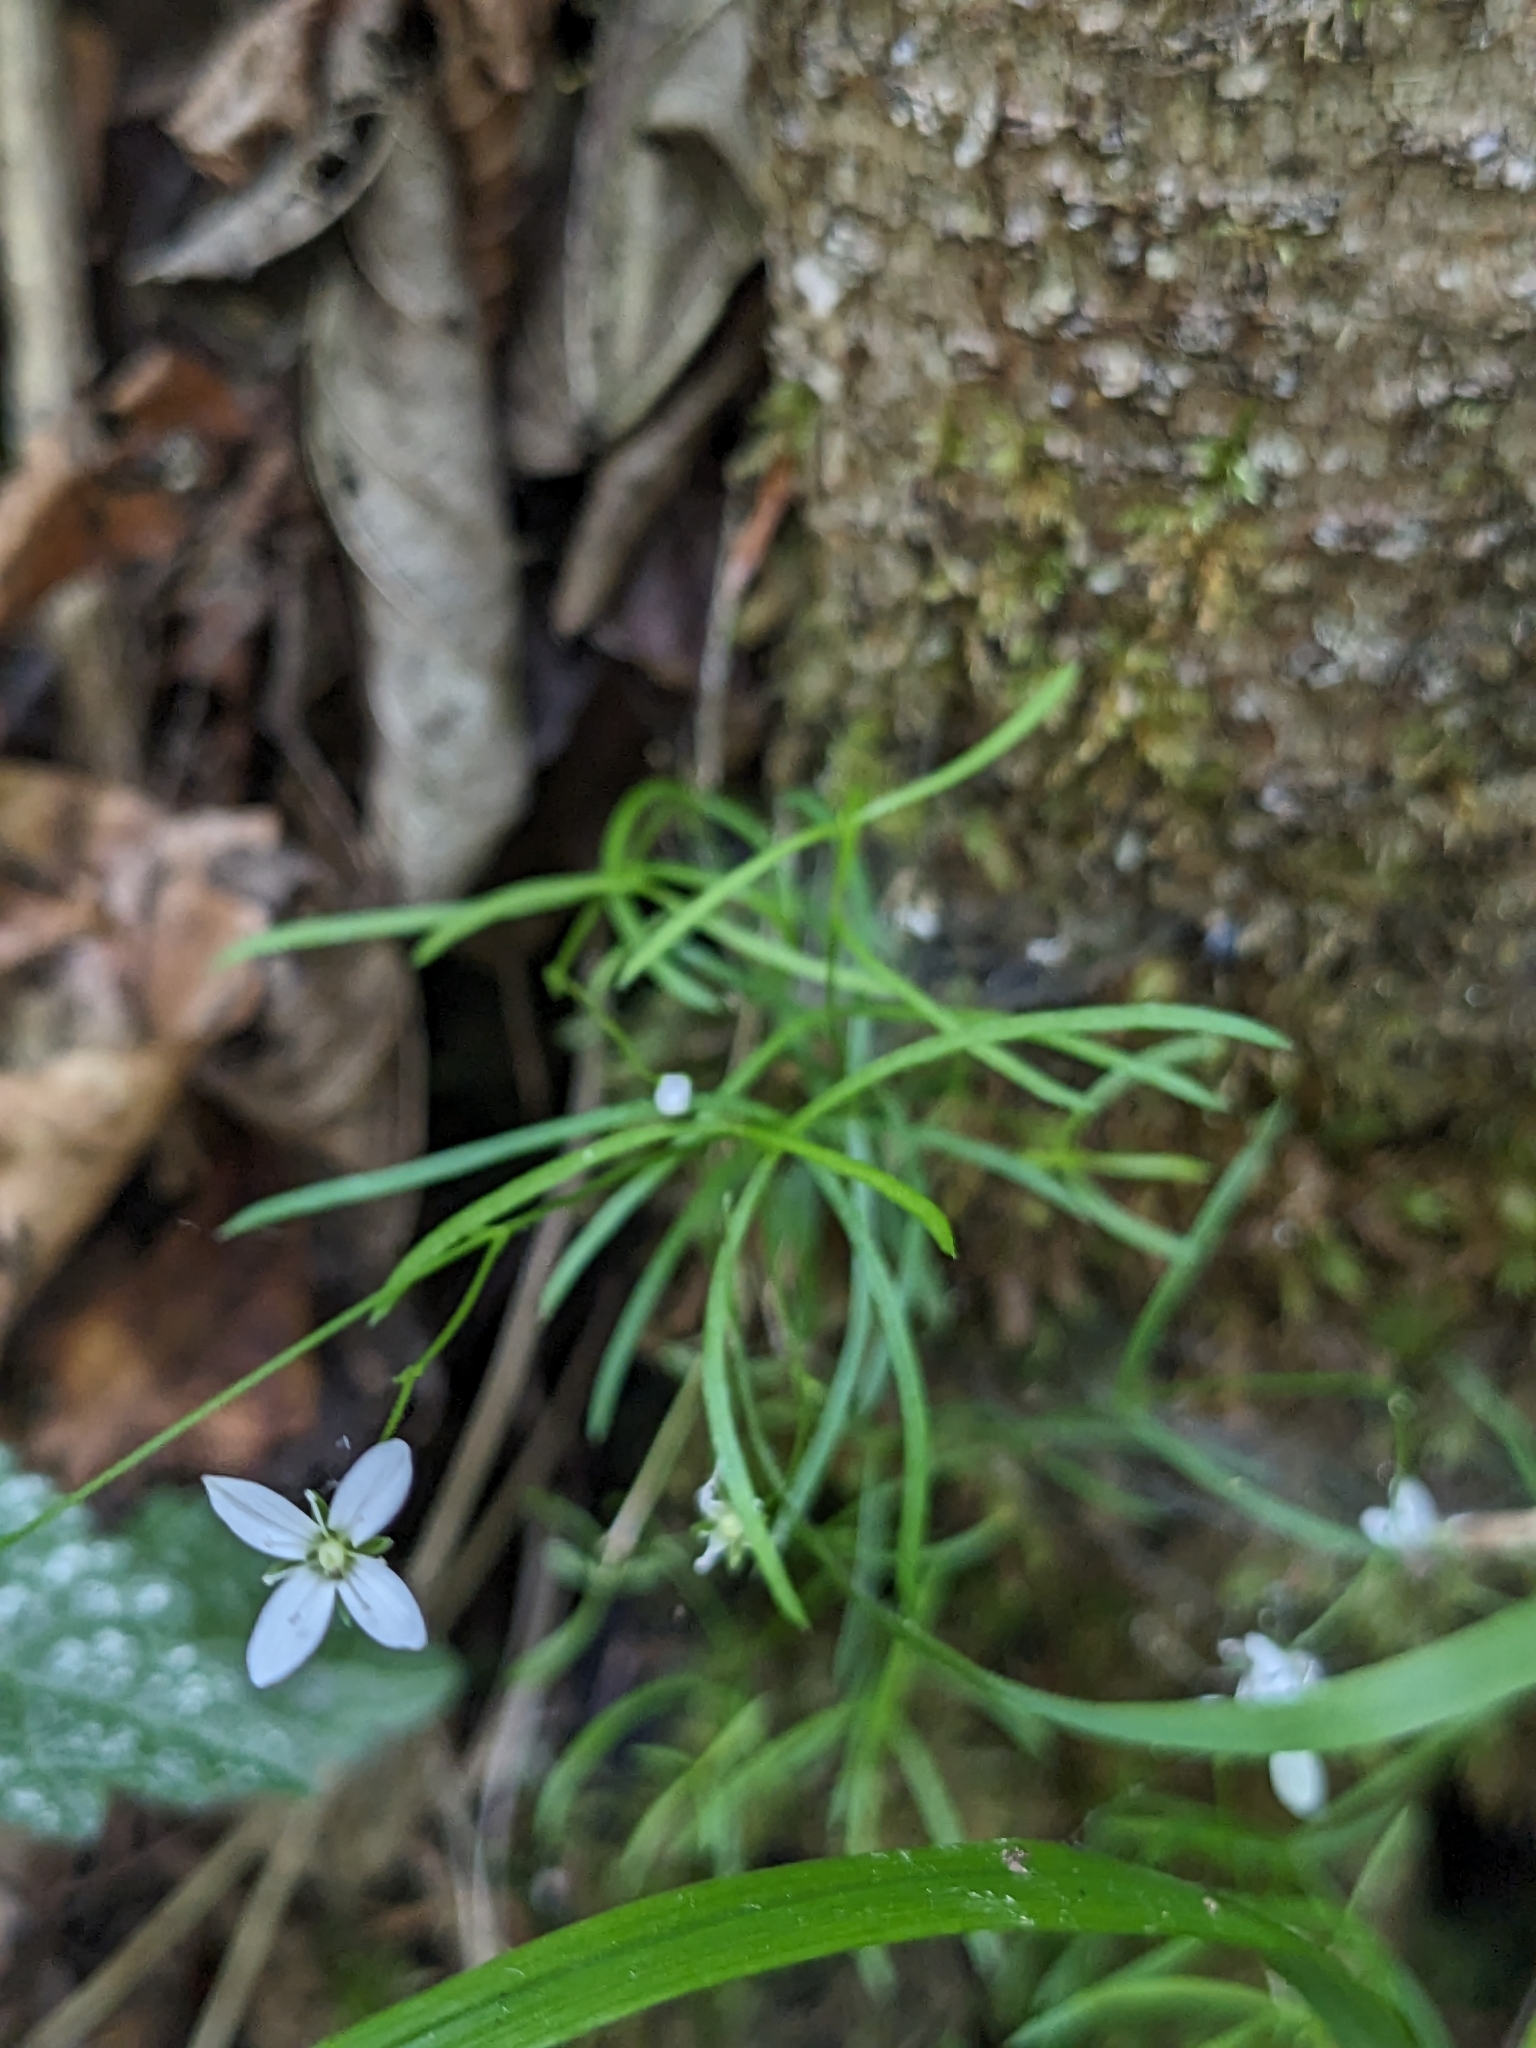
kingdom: Plantae
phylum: Tracheophyta
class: Magnoliopsida
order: Caryophyllales
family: Caryophyllaceae
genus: Moehringia
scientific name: Moehringia muscosa
